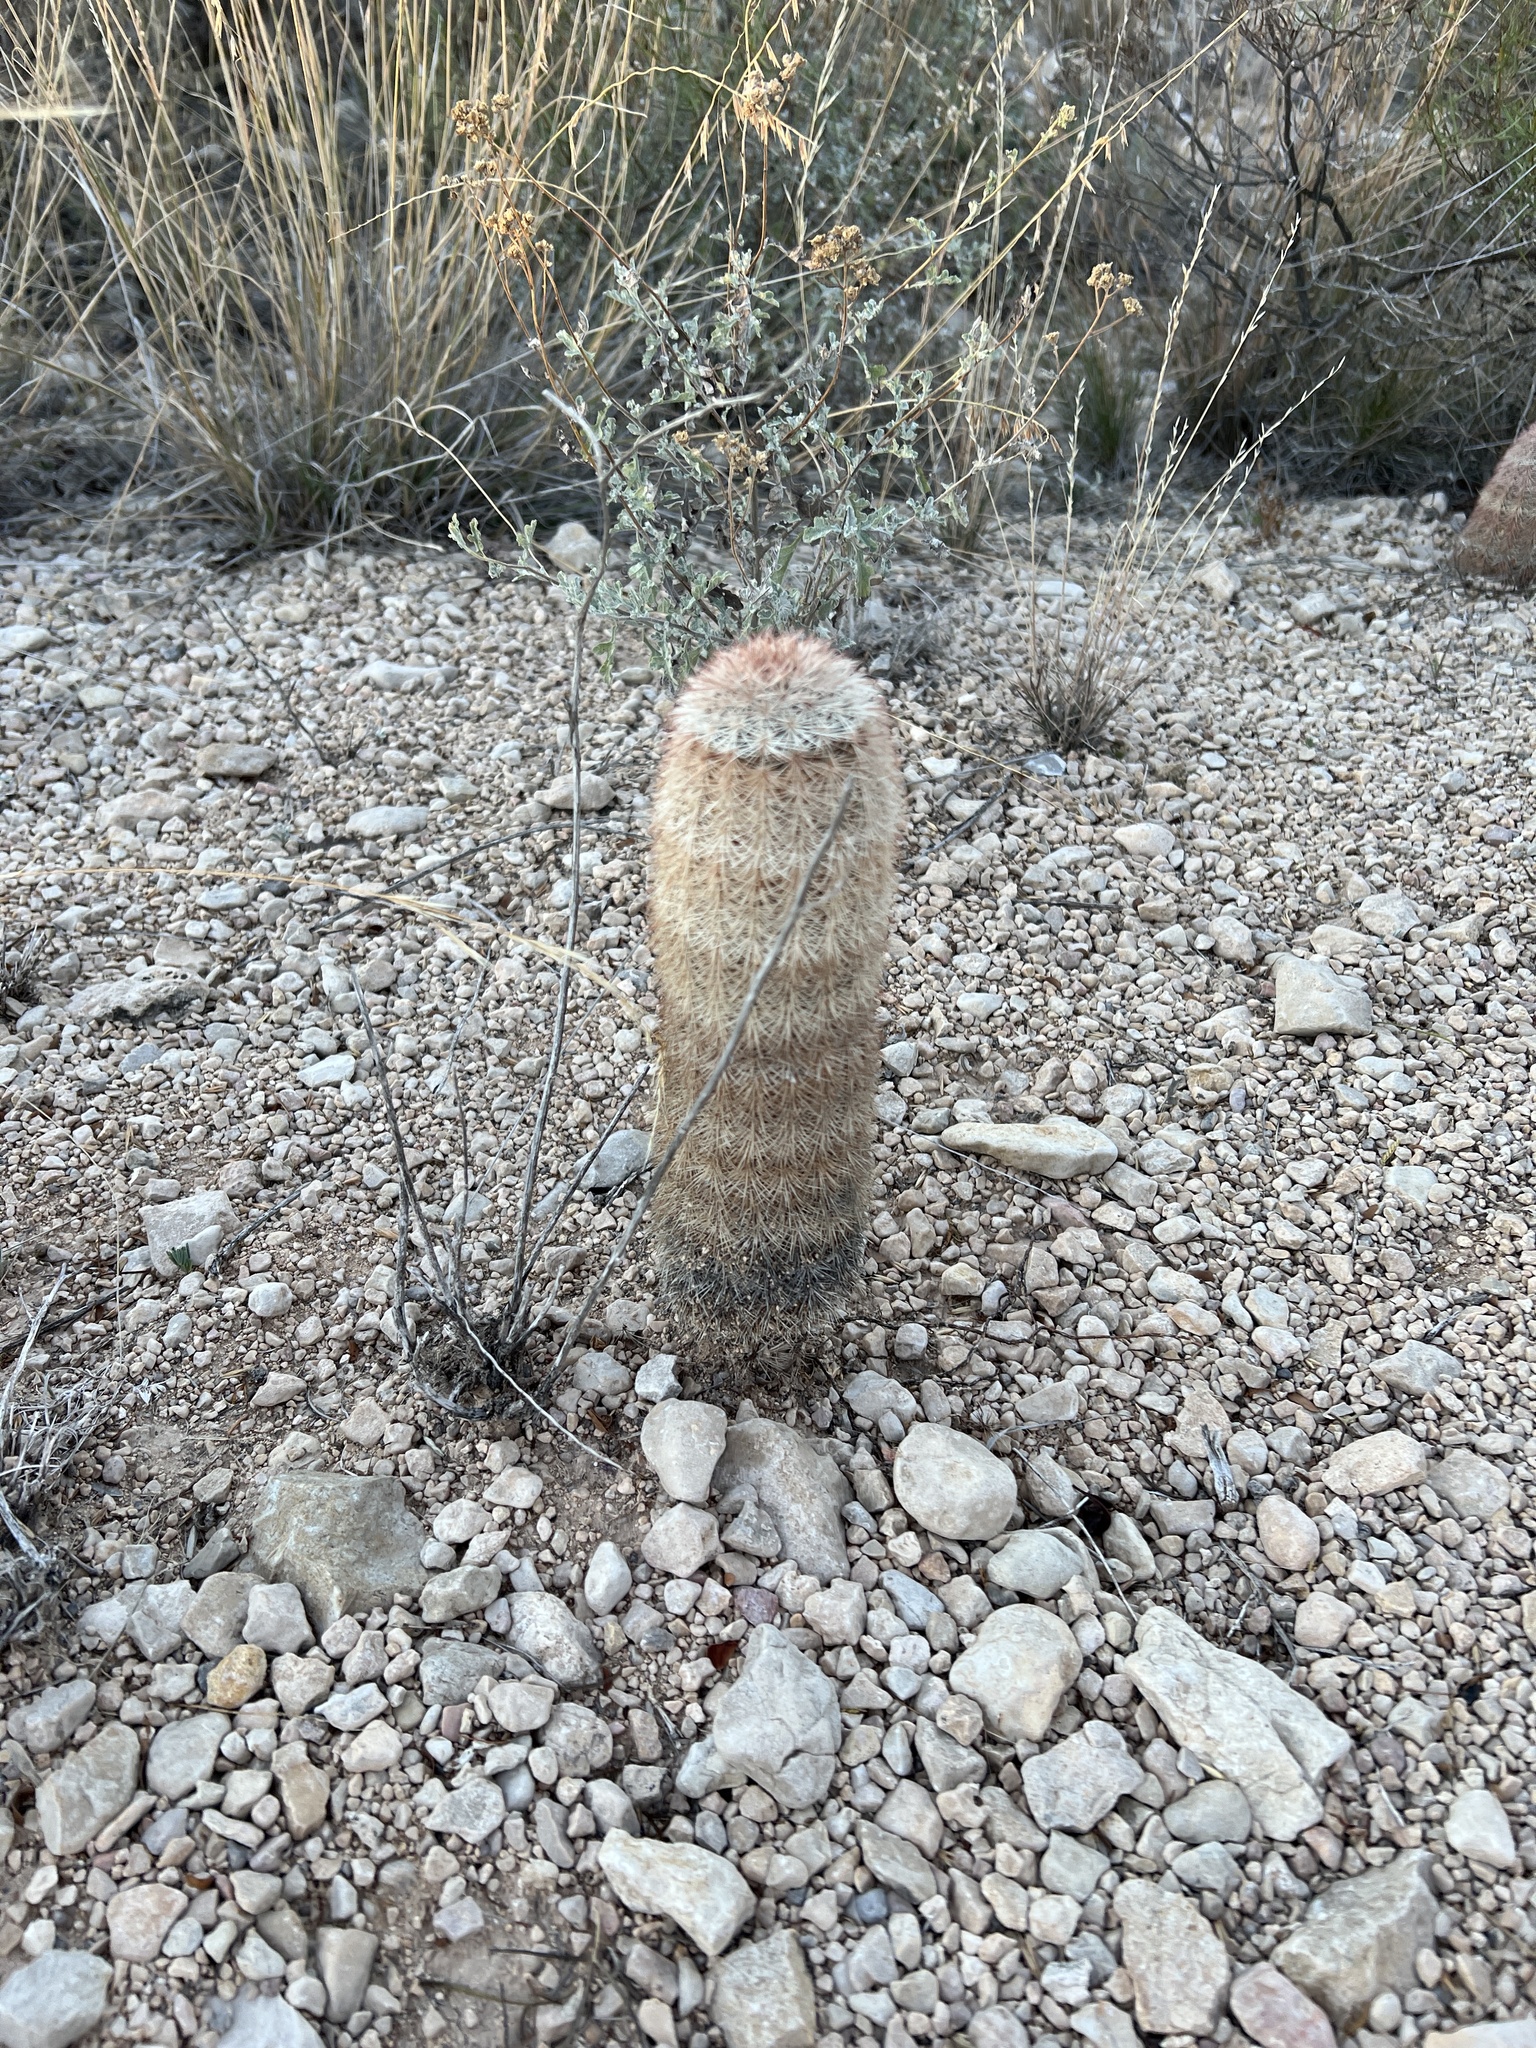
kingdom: Plantae
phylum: Tracheophyta
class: Magnoliopsida
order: Caryophyllales
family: Cactaceae
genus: Echinocereus
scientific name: Echinocereus dasyacanthus
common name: Spiny hedgehog cactus
